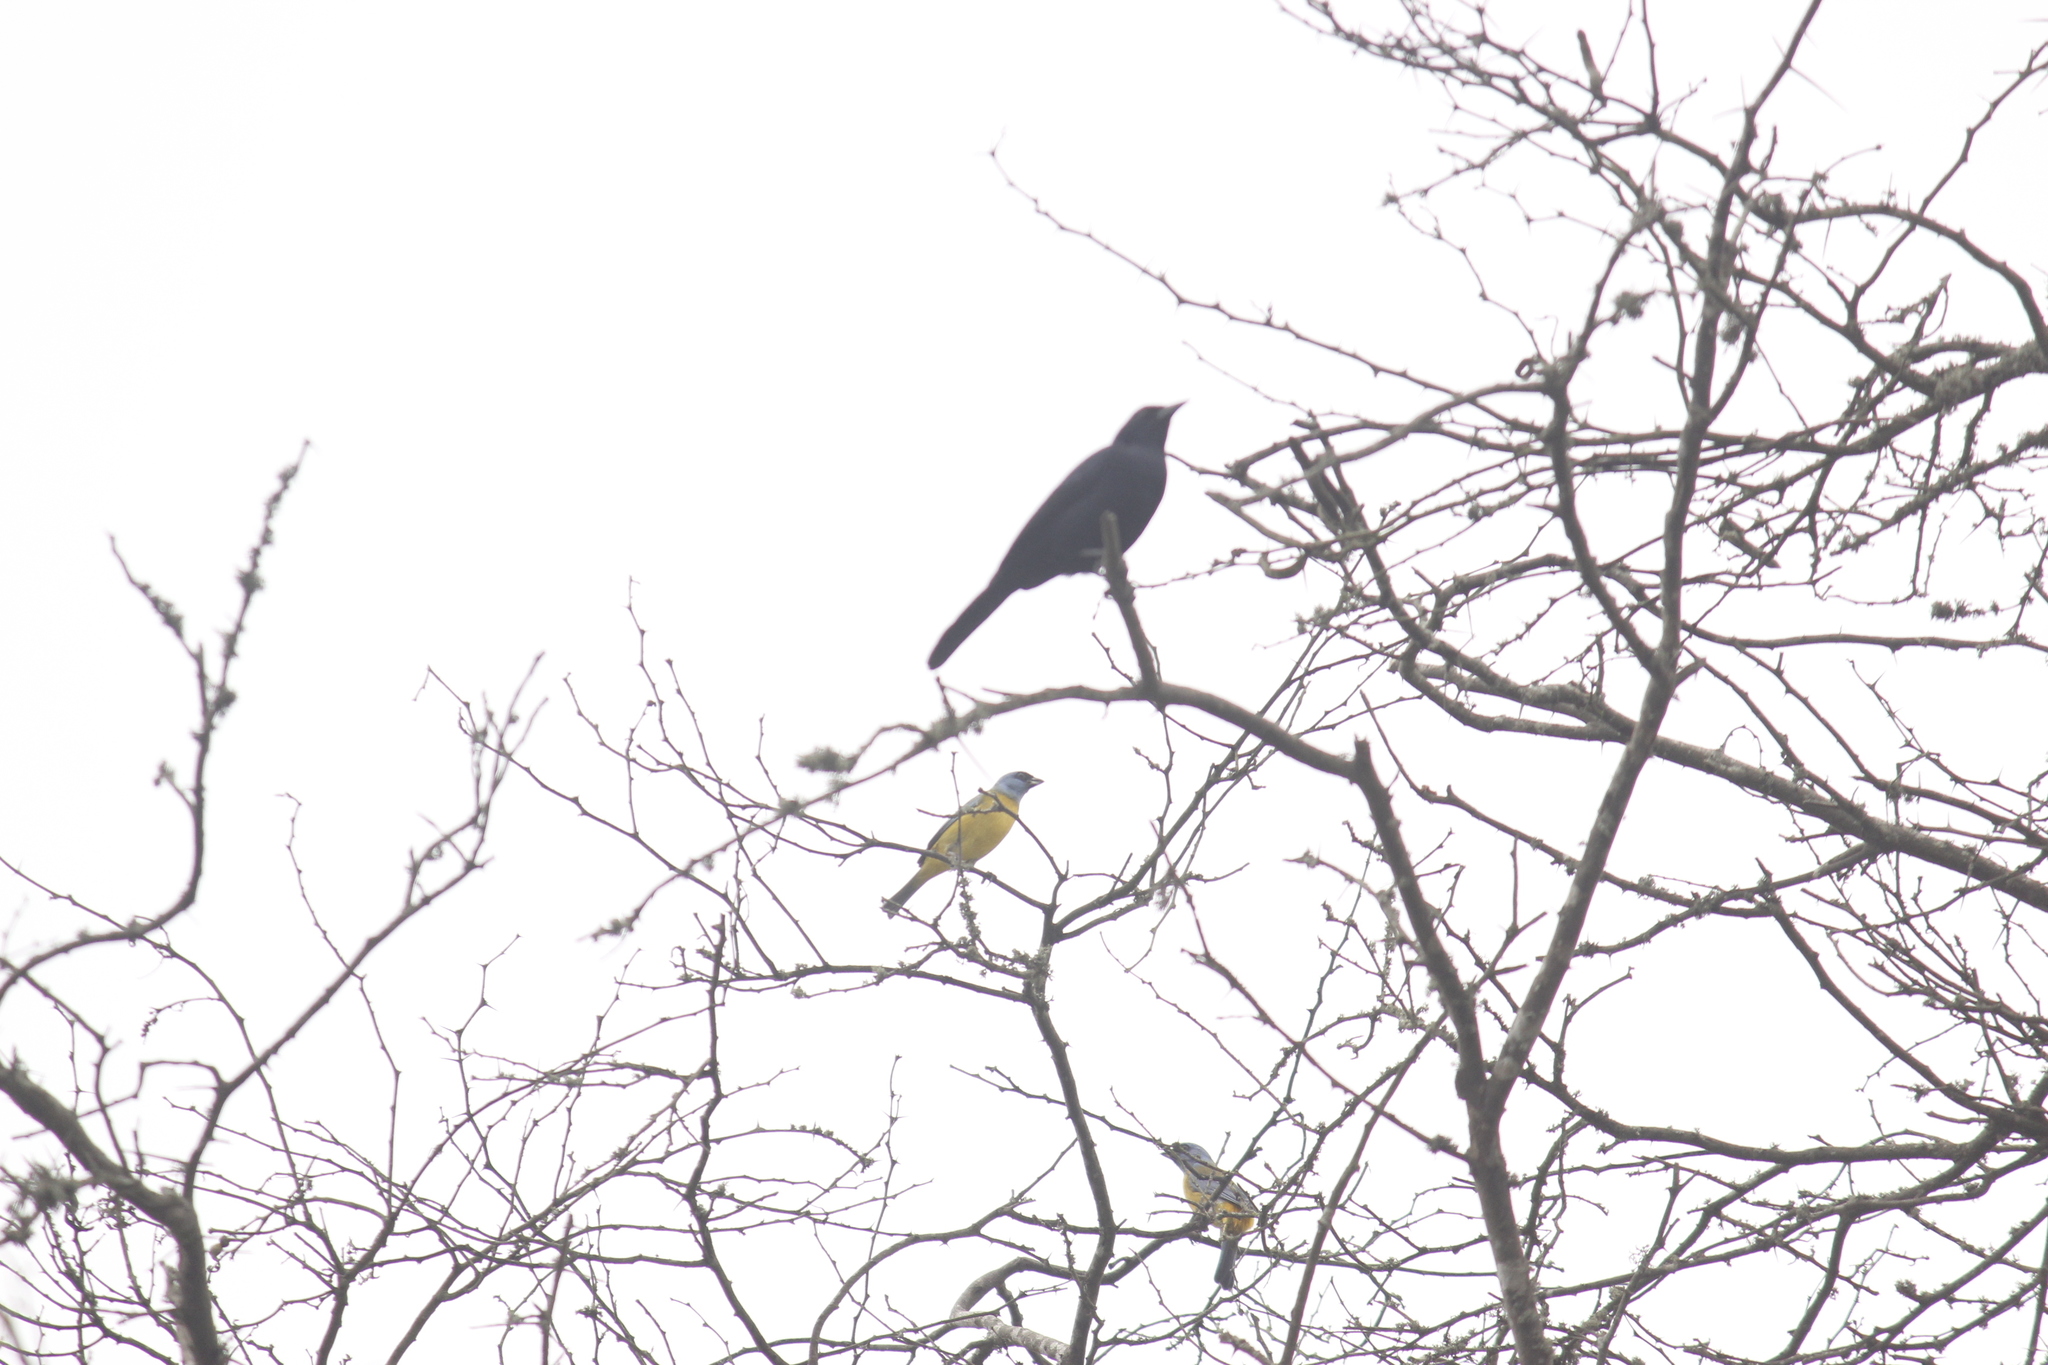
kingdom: Animalia
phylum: Chordata
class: Aves
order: Passeriformes
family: Thraupidae
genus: Rauenia
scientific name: Rauenia bonariensis
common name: Blue-and-yellow tanager
